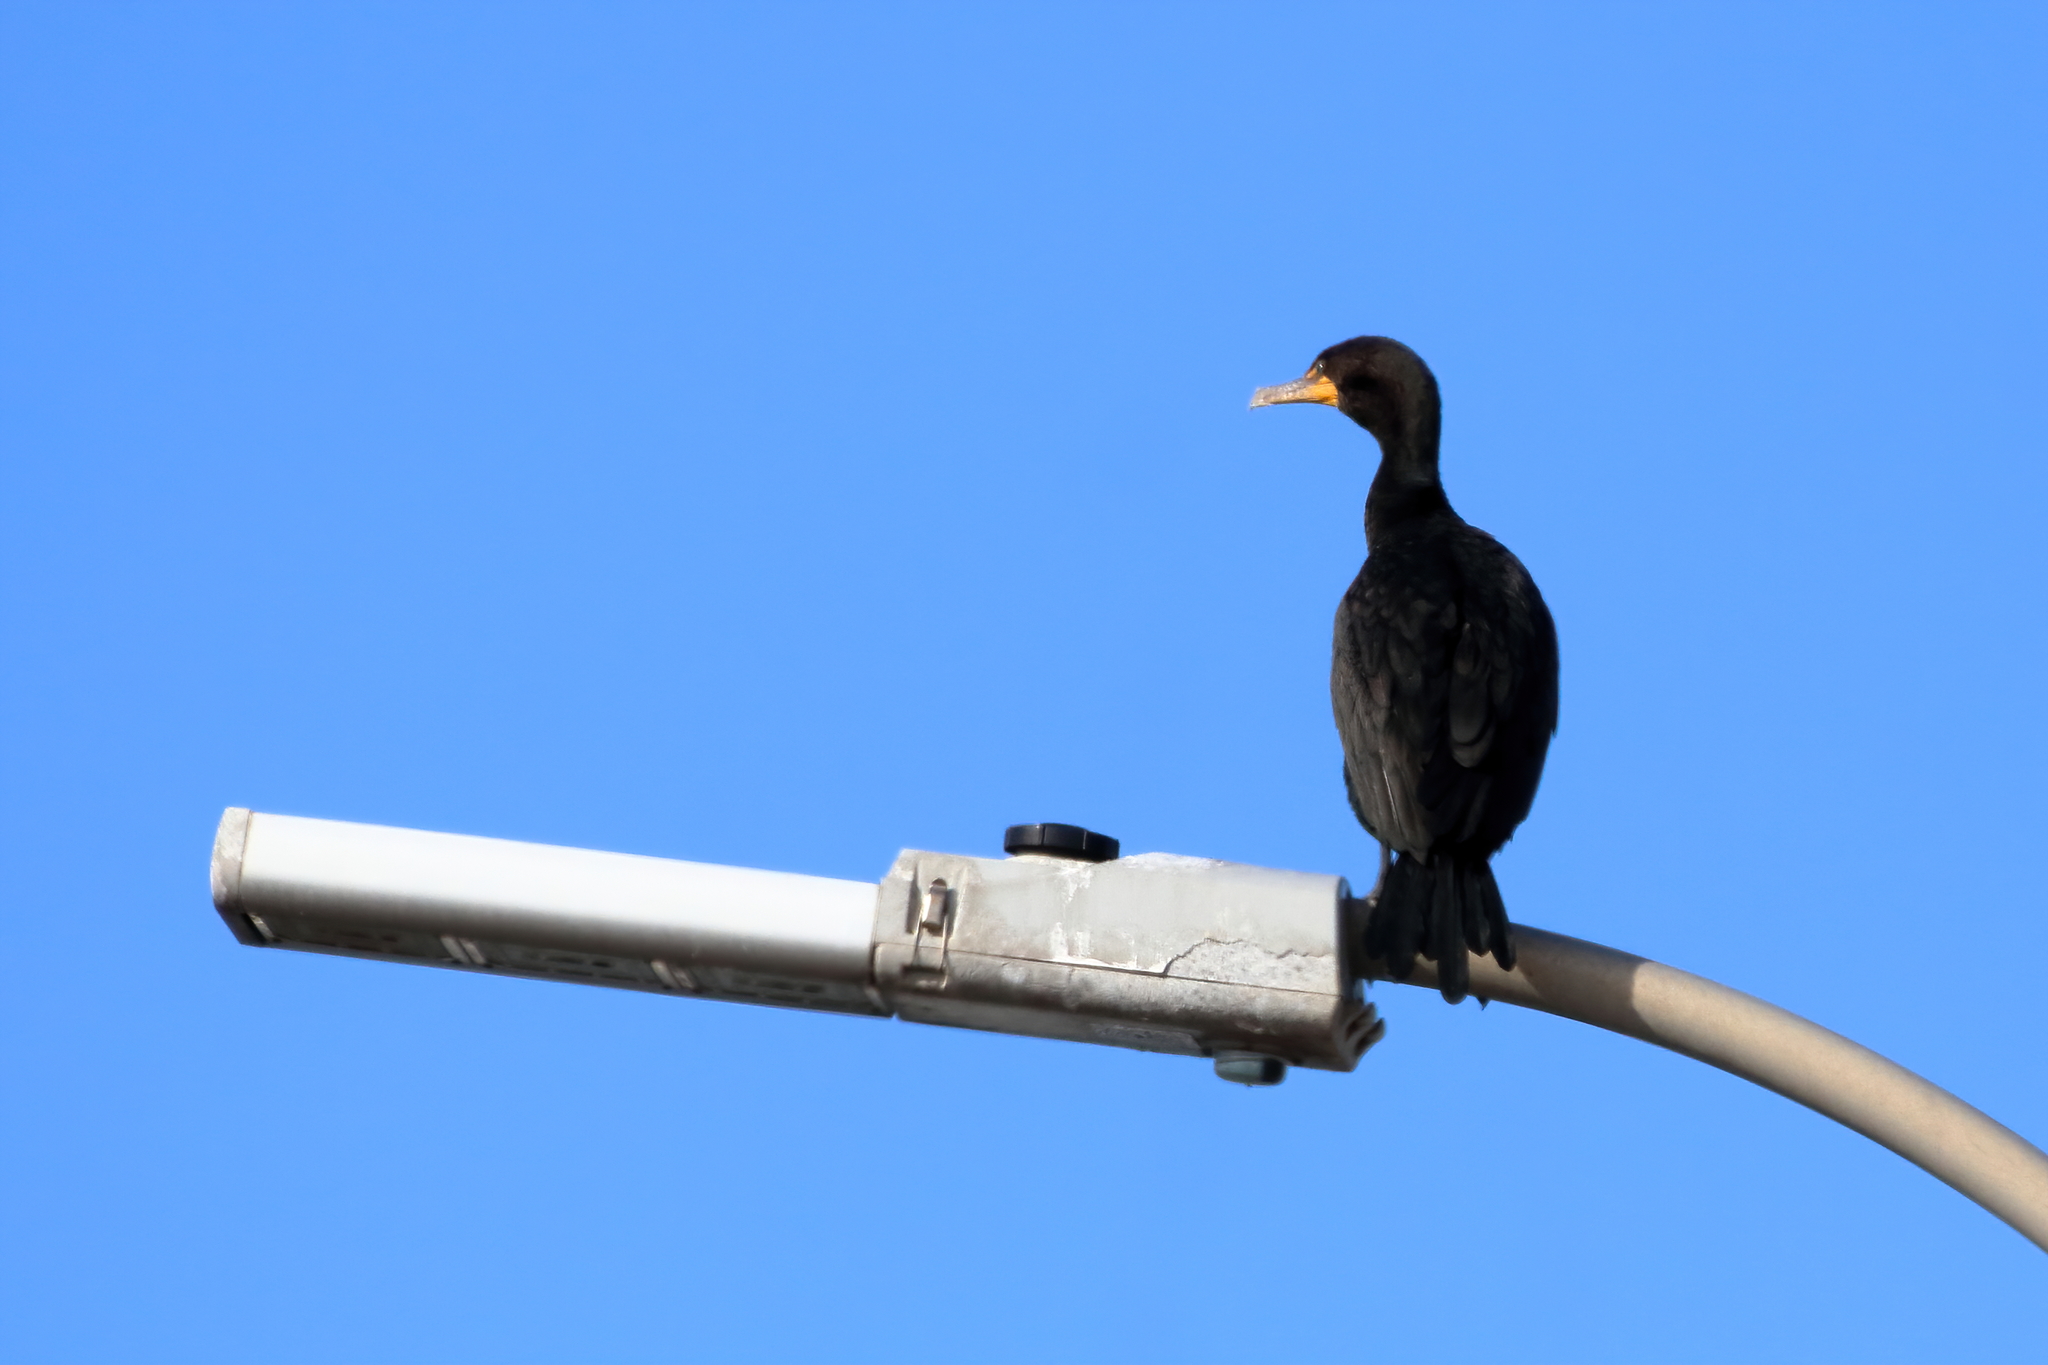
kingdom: Animalia
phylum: Chordata
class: Aves
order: Suliformes
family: Phalacrocoracidae
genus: Phalacrocorax
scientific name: Phalacrocorax auritus
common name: Double-crested cormorant
